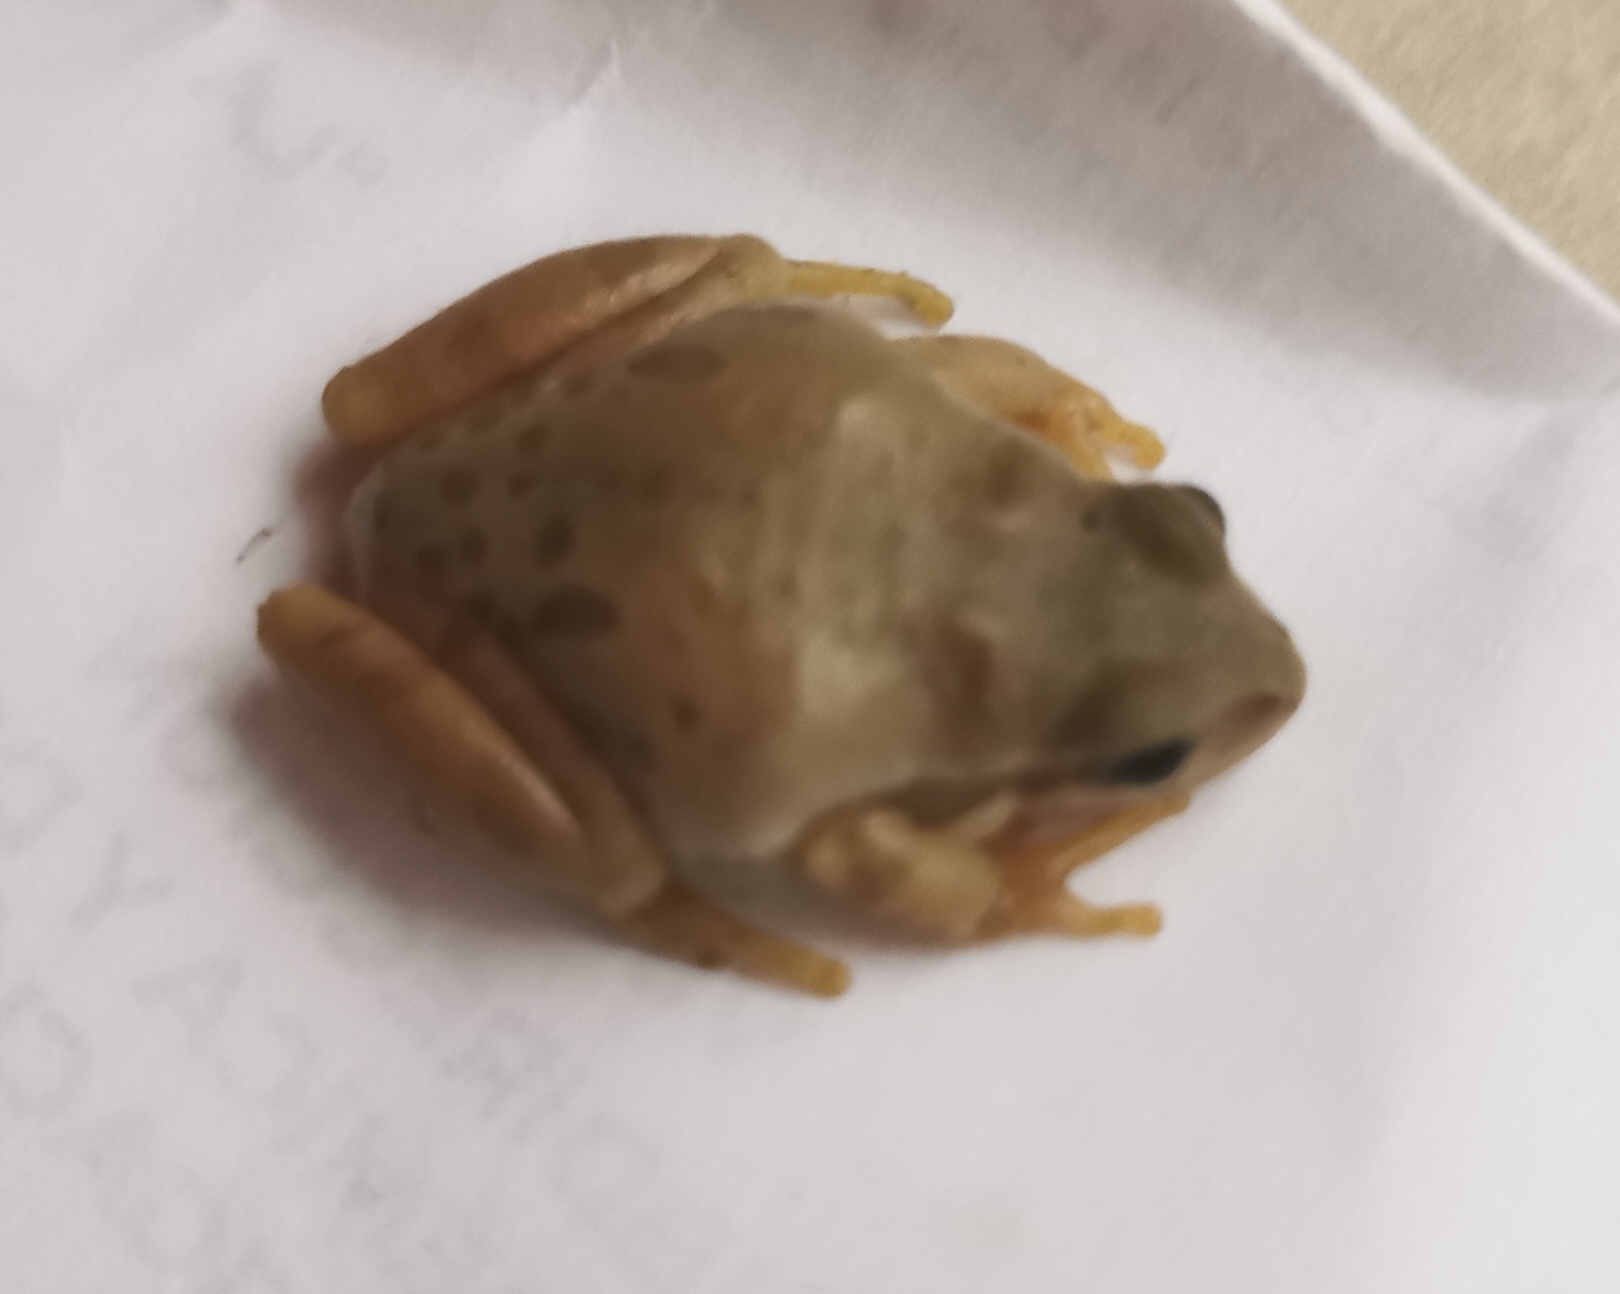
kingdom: Animalia
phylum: Chordata
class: Amphibia
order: Anura
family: Hylidae
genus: Dryophytes
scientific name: Dryophytes eximius
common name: Mountain treefrog
